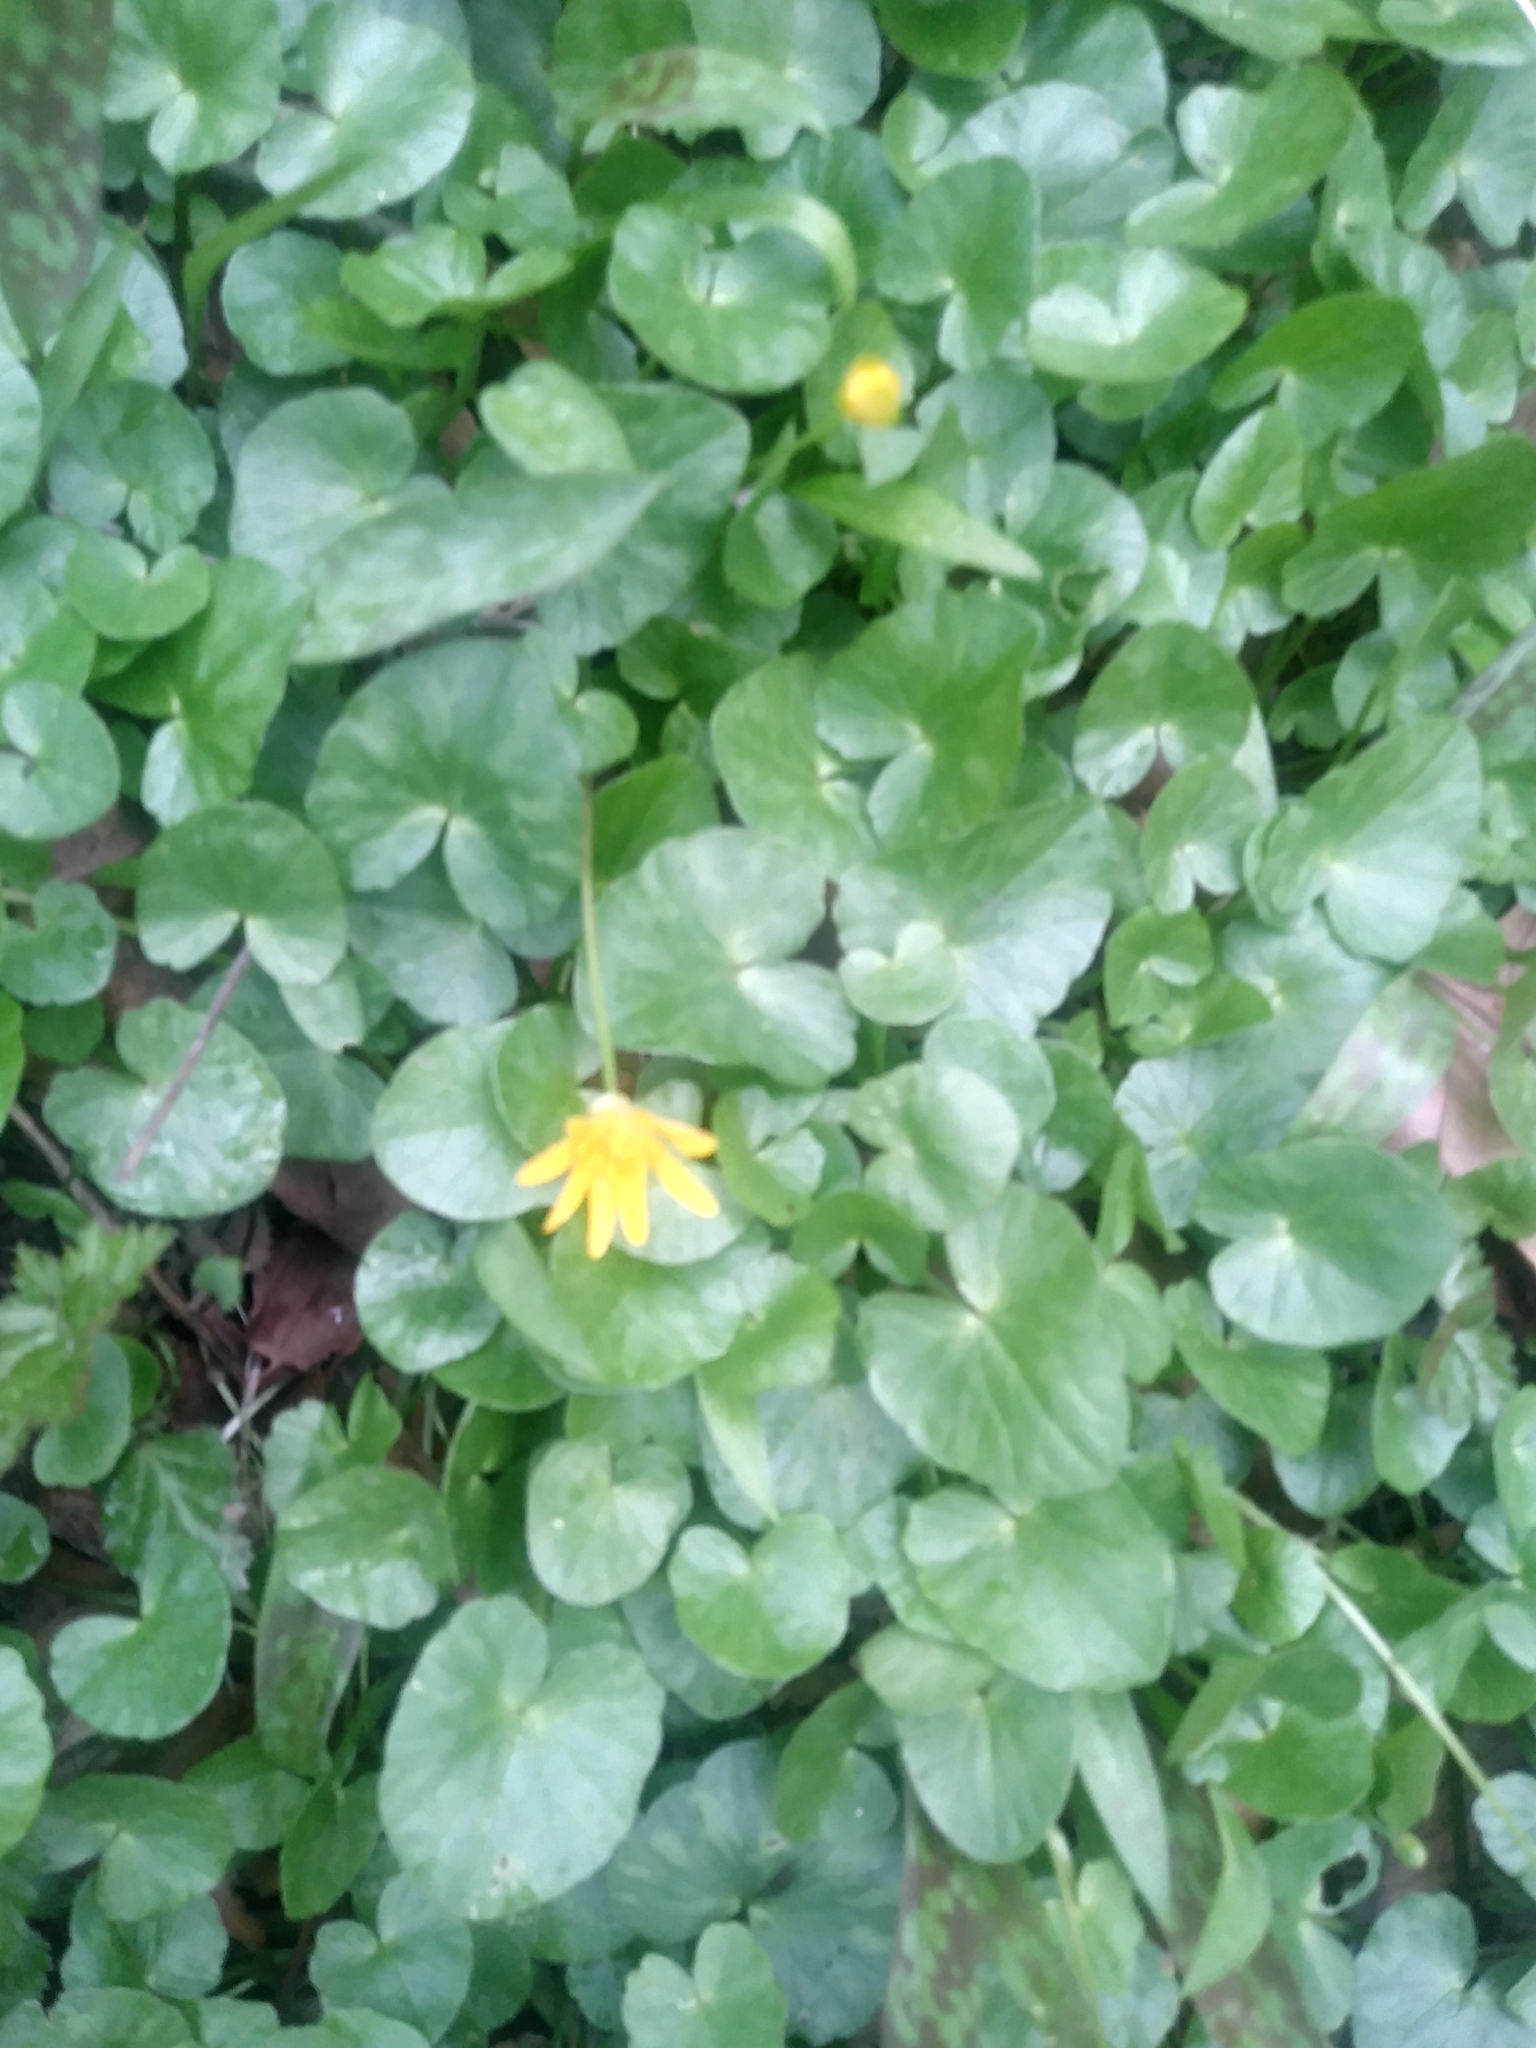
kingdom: Plantae
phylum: Tracheophyta
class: Magnoliopsida
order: Ranunculales
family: Ranunculaceae
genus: Ficaria
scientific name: Ficaria verna
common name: Lesser celandine
